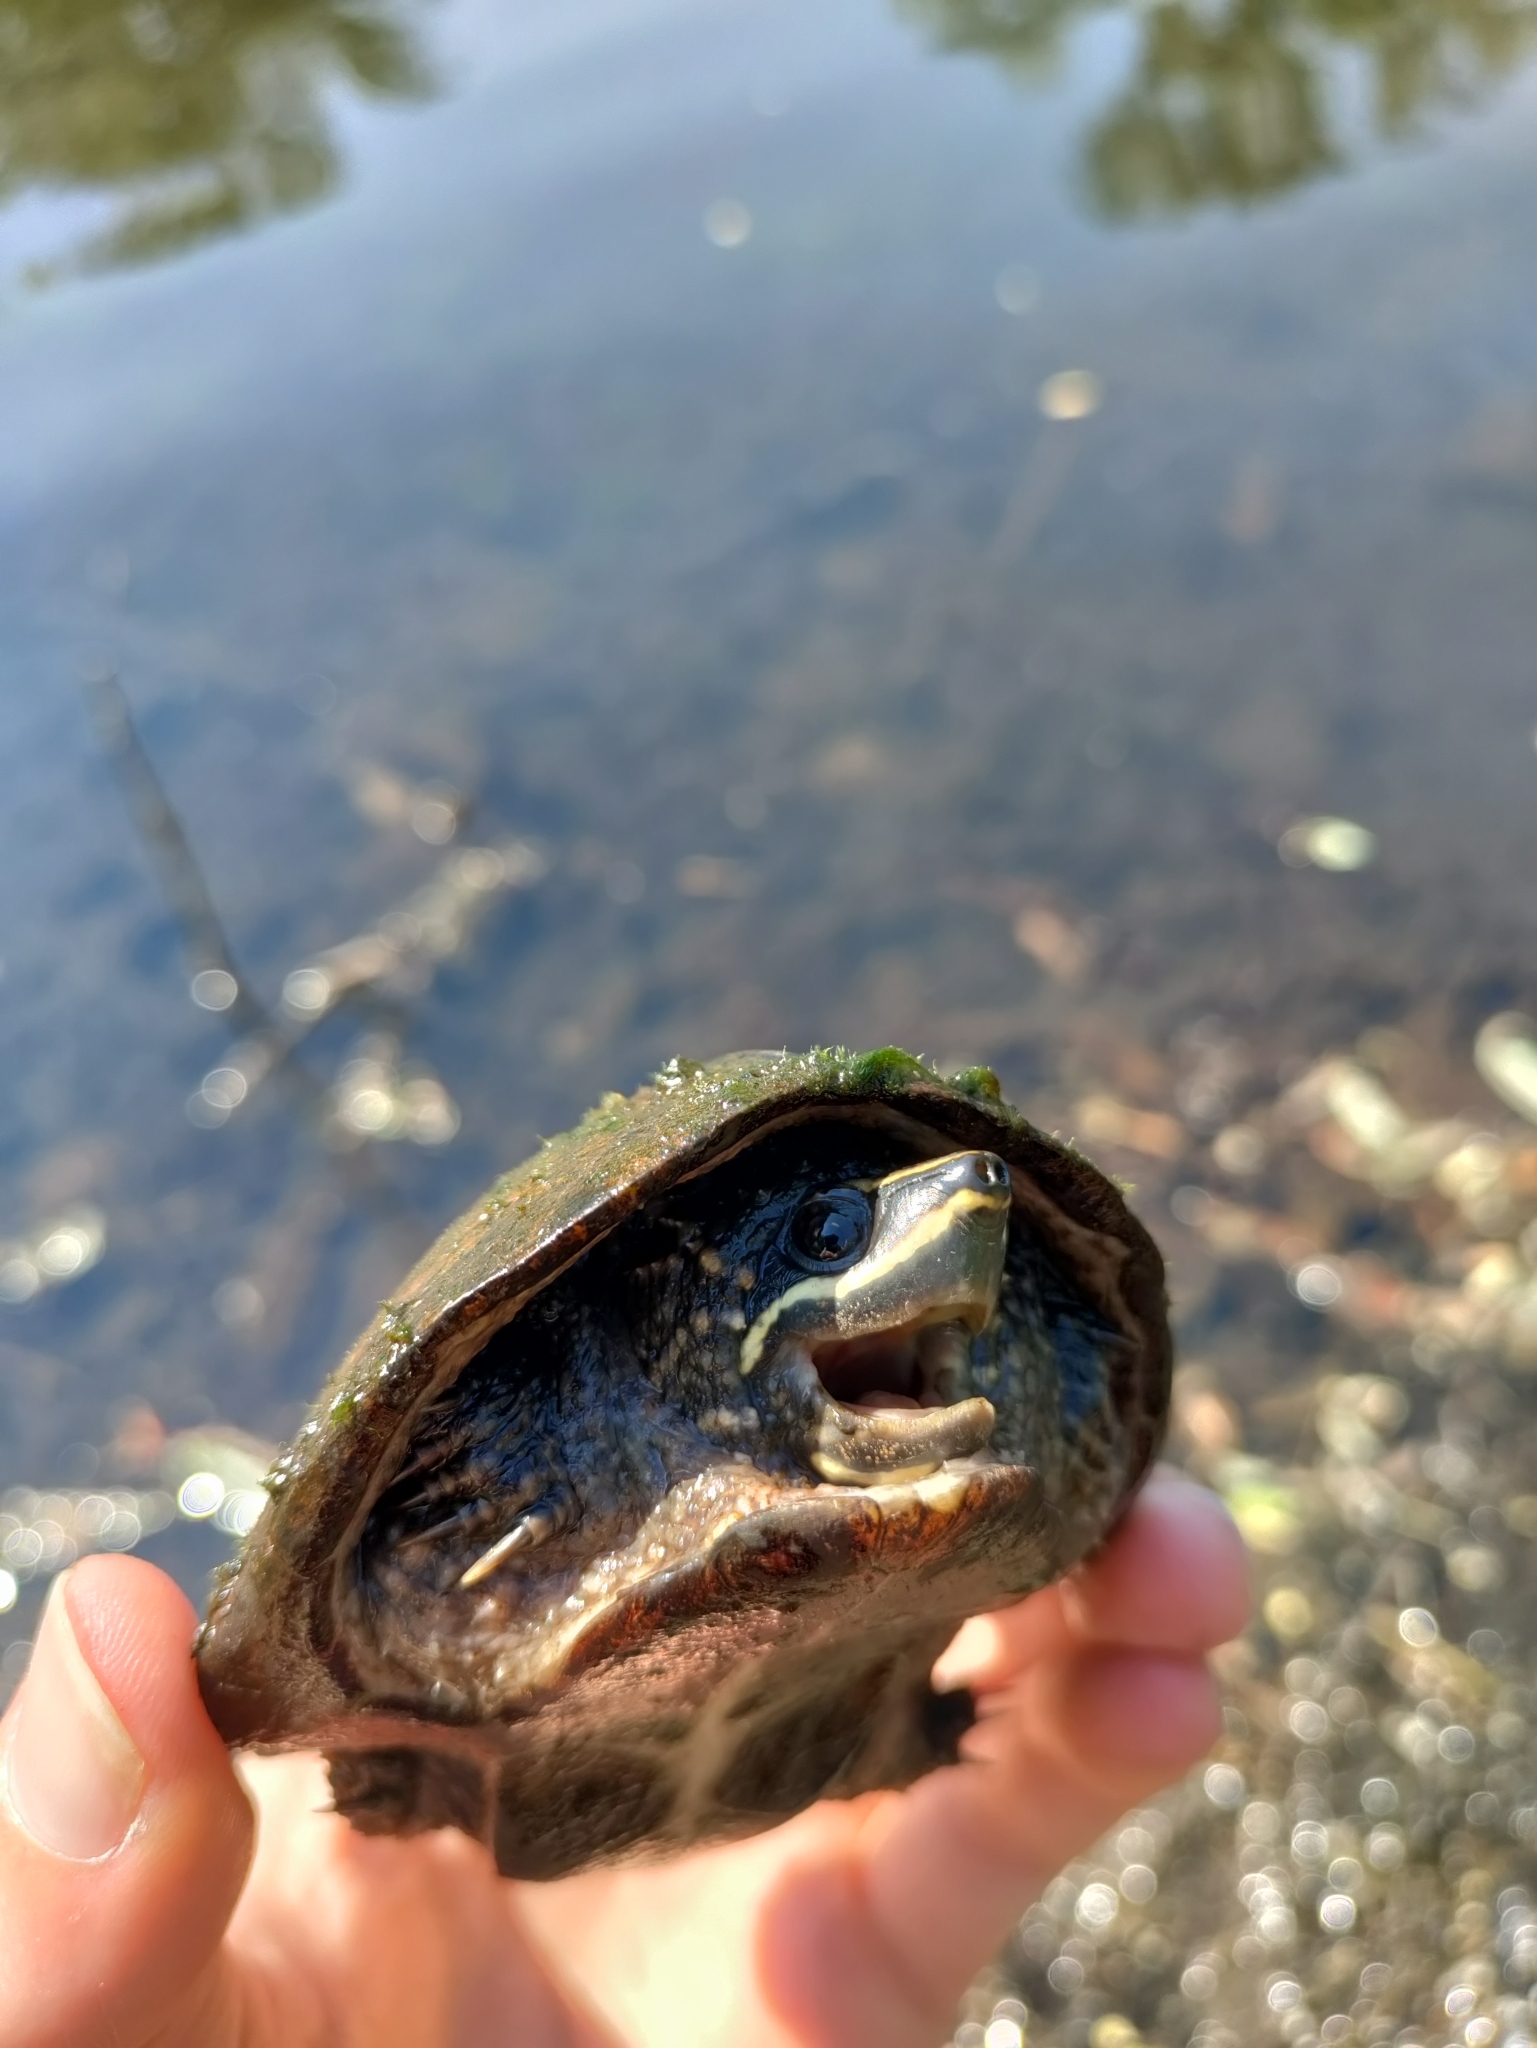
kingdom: Animalia
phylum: Chordata
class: Testudines
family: Kinosternidae
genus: Sternotherus
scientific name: Sternotherus odoratus
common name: Common musk turtle
